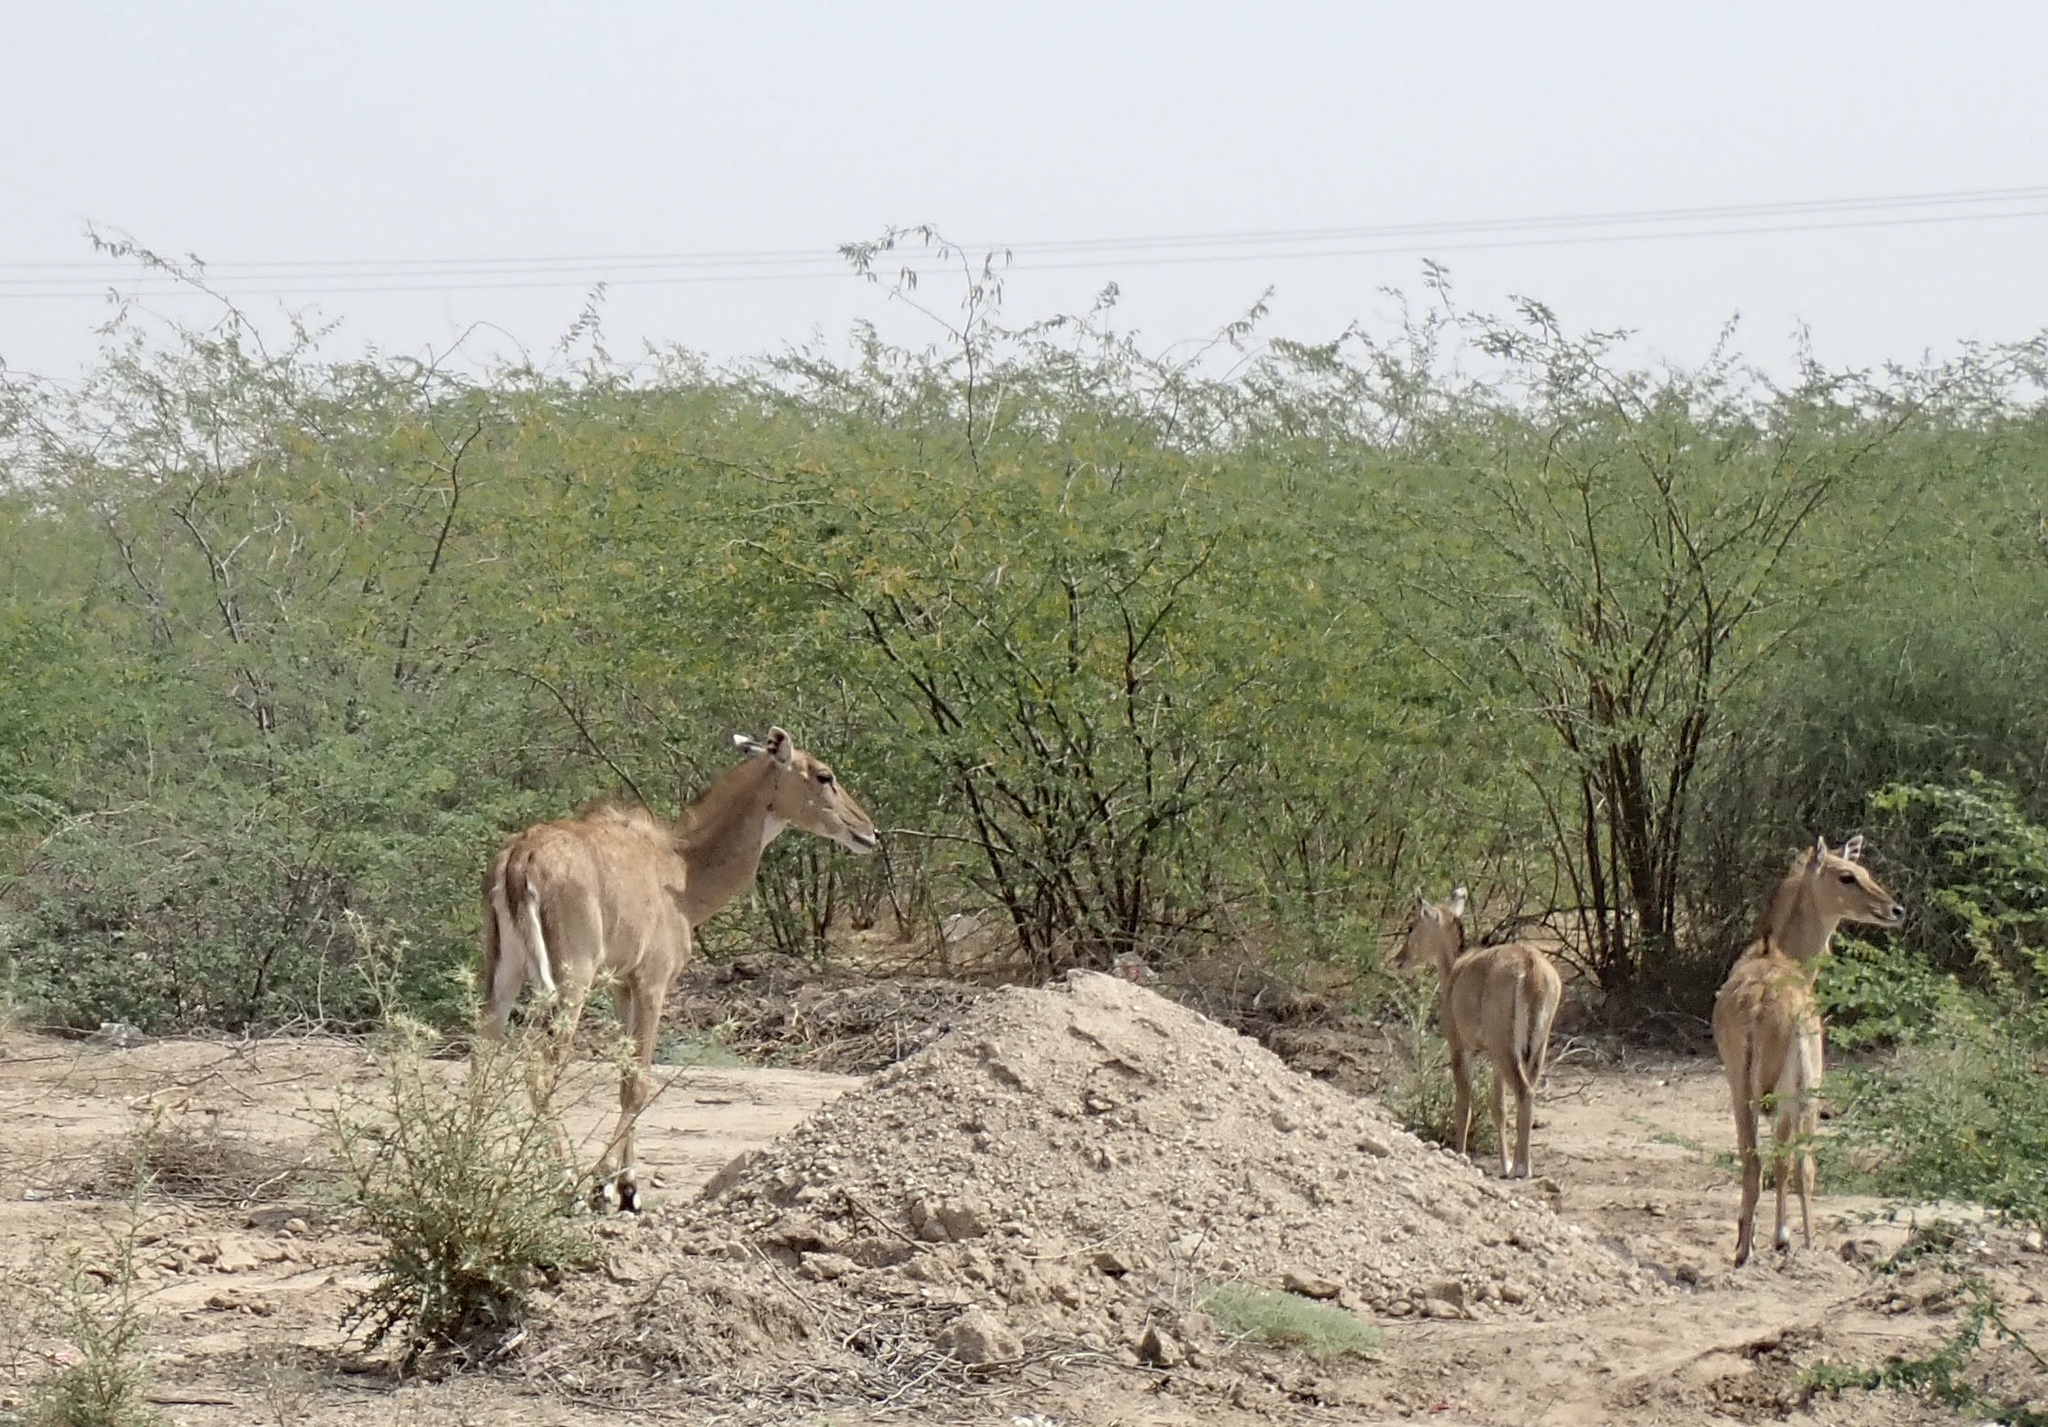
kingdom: Animalia
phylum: Chordata
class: Mammalia
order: Artiodactyla
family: Bovidae
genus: Boselaphus
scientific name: Boselaphus tragocamelus
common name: Nilgai
